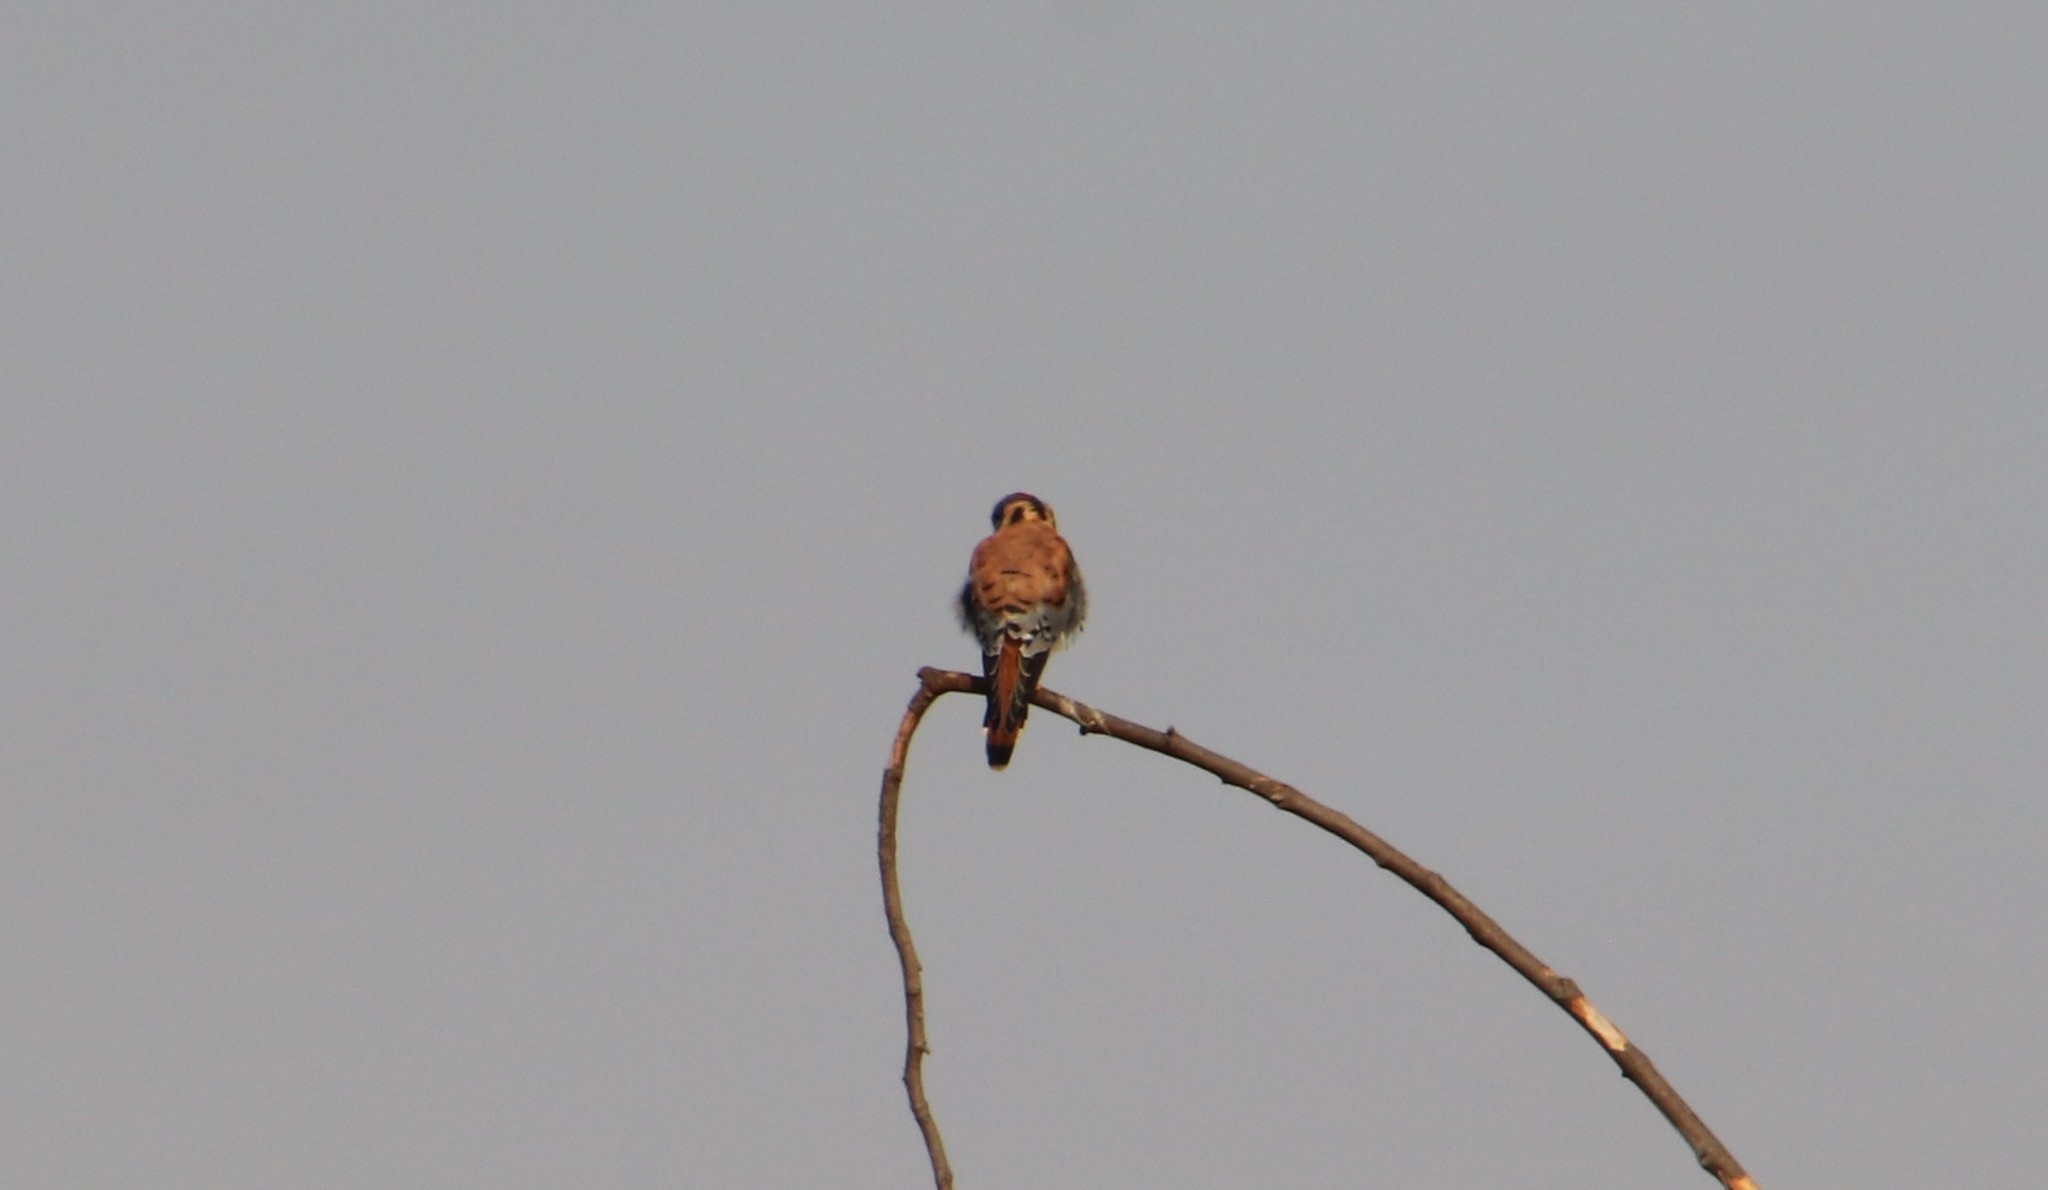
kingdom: Animalia
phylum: Chordata
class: Aves
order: Falconiformes
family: Falconidae
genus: Falco
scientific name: Falco sparverius
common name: American kestrel
